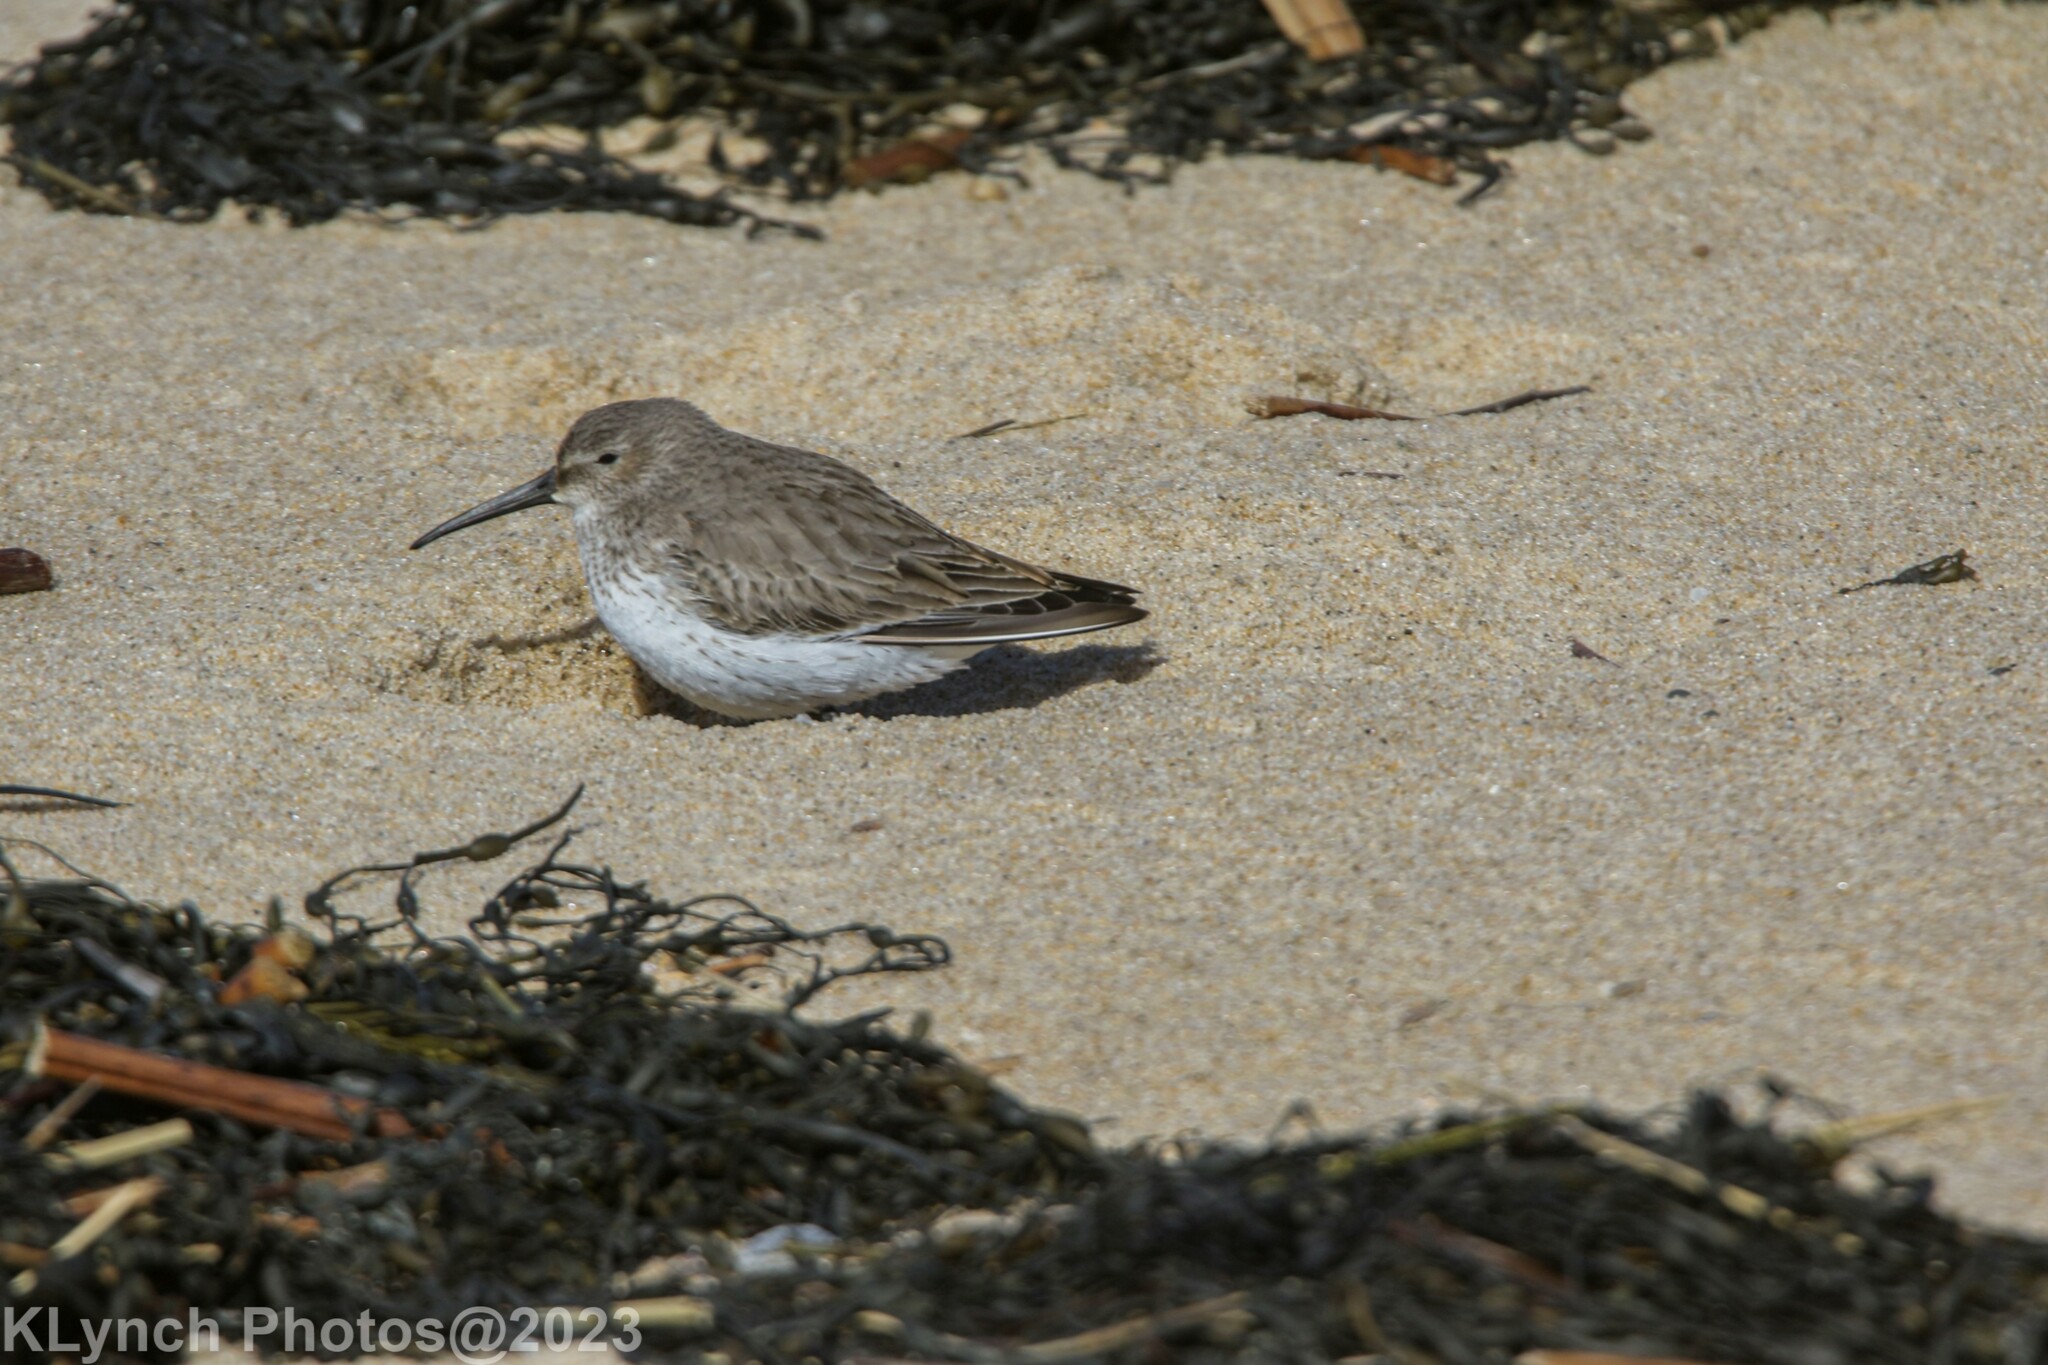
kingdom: Animalia
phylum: Chordata
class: Aves
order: Charadriiformes
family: Scolopacidae
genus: Calidris
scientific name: Calidris alpina
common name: Dunlin
